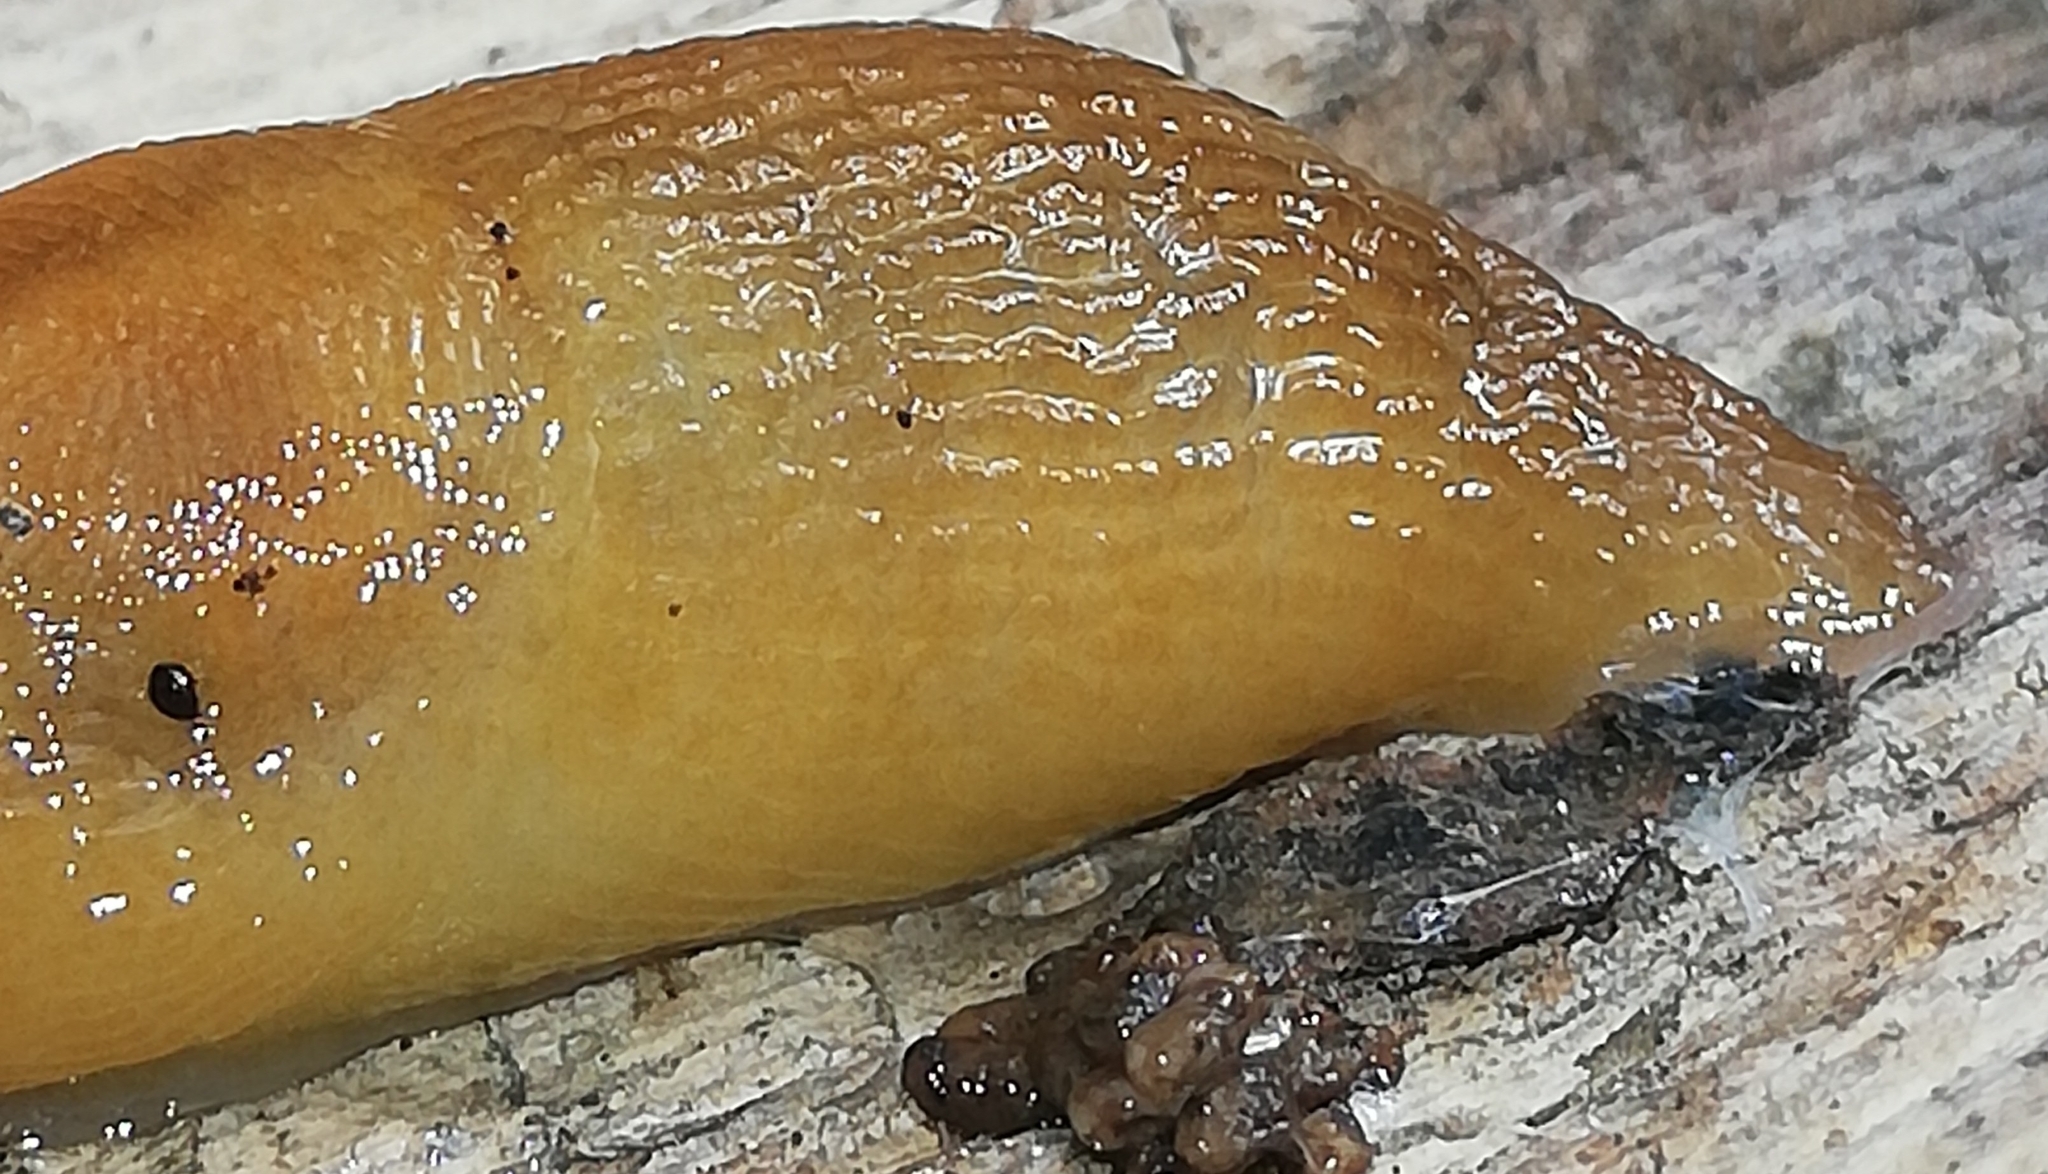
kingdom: Animalia
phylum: Mollusca
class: Gastropoda
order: Stylommatophora
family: Limacidae
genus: Malacolimax
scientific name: Malacolimax tenellus
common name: Lemon slug
